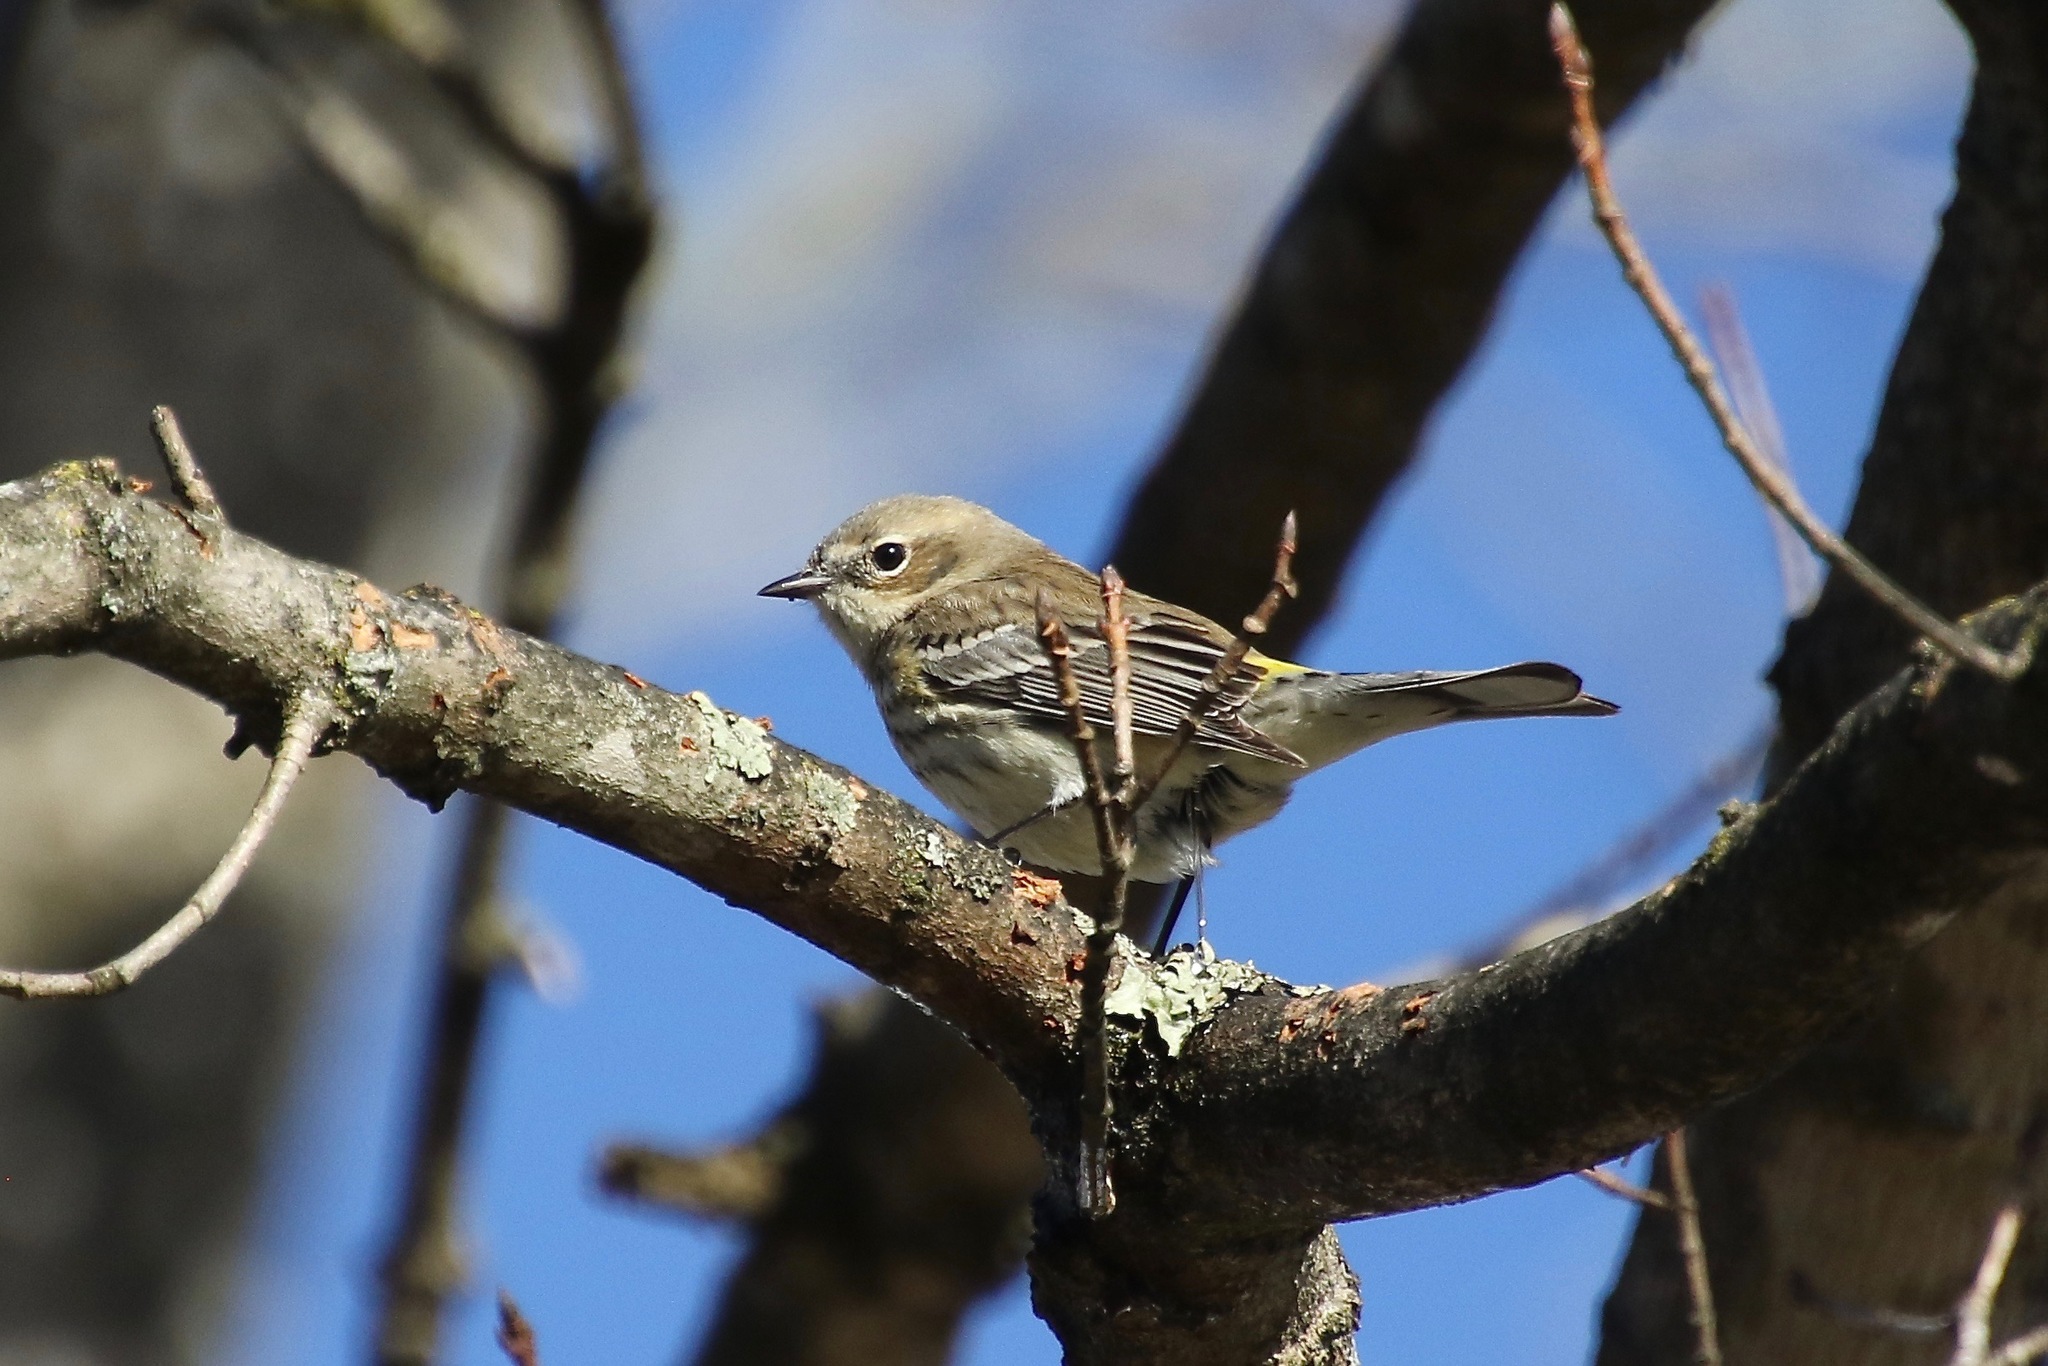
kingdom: Animalia
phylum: Chordata
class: Aves
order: Passeriformes
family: Parulidae
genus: Setophaga
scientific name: Setophaga coronata
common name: Myrtle warbler
